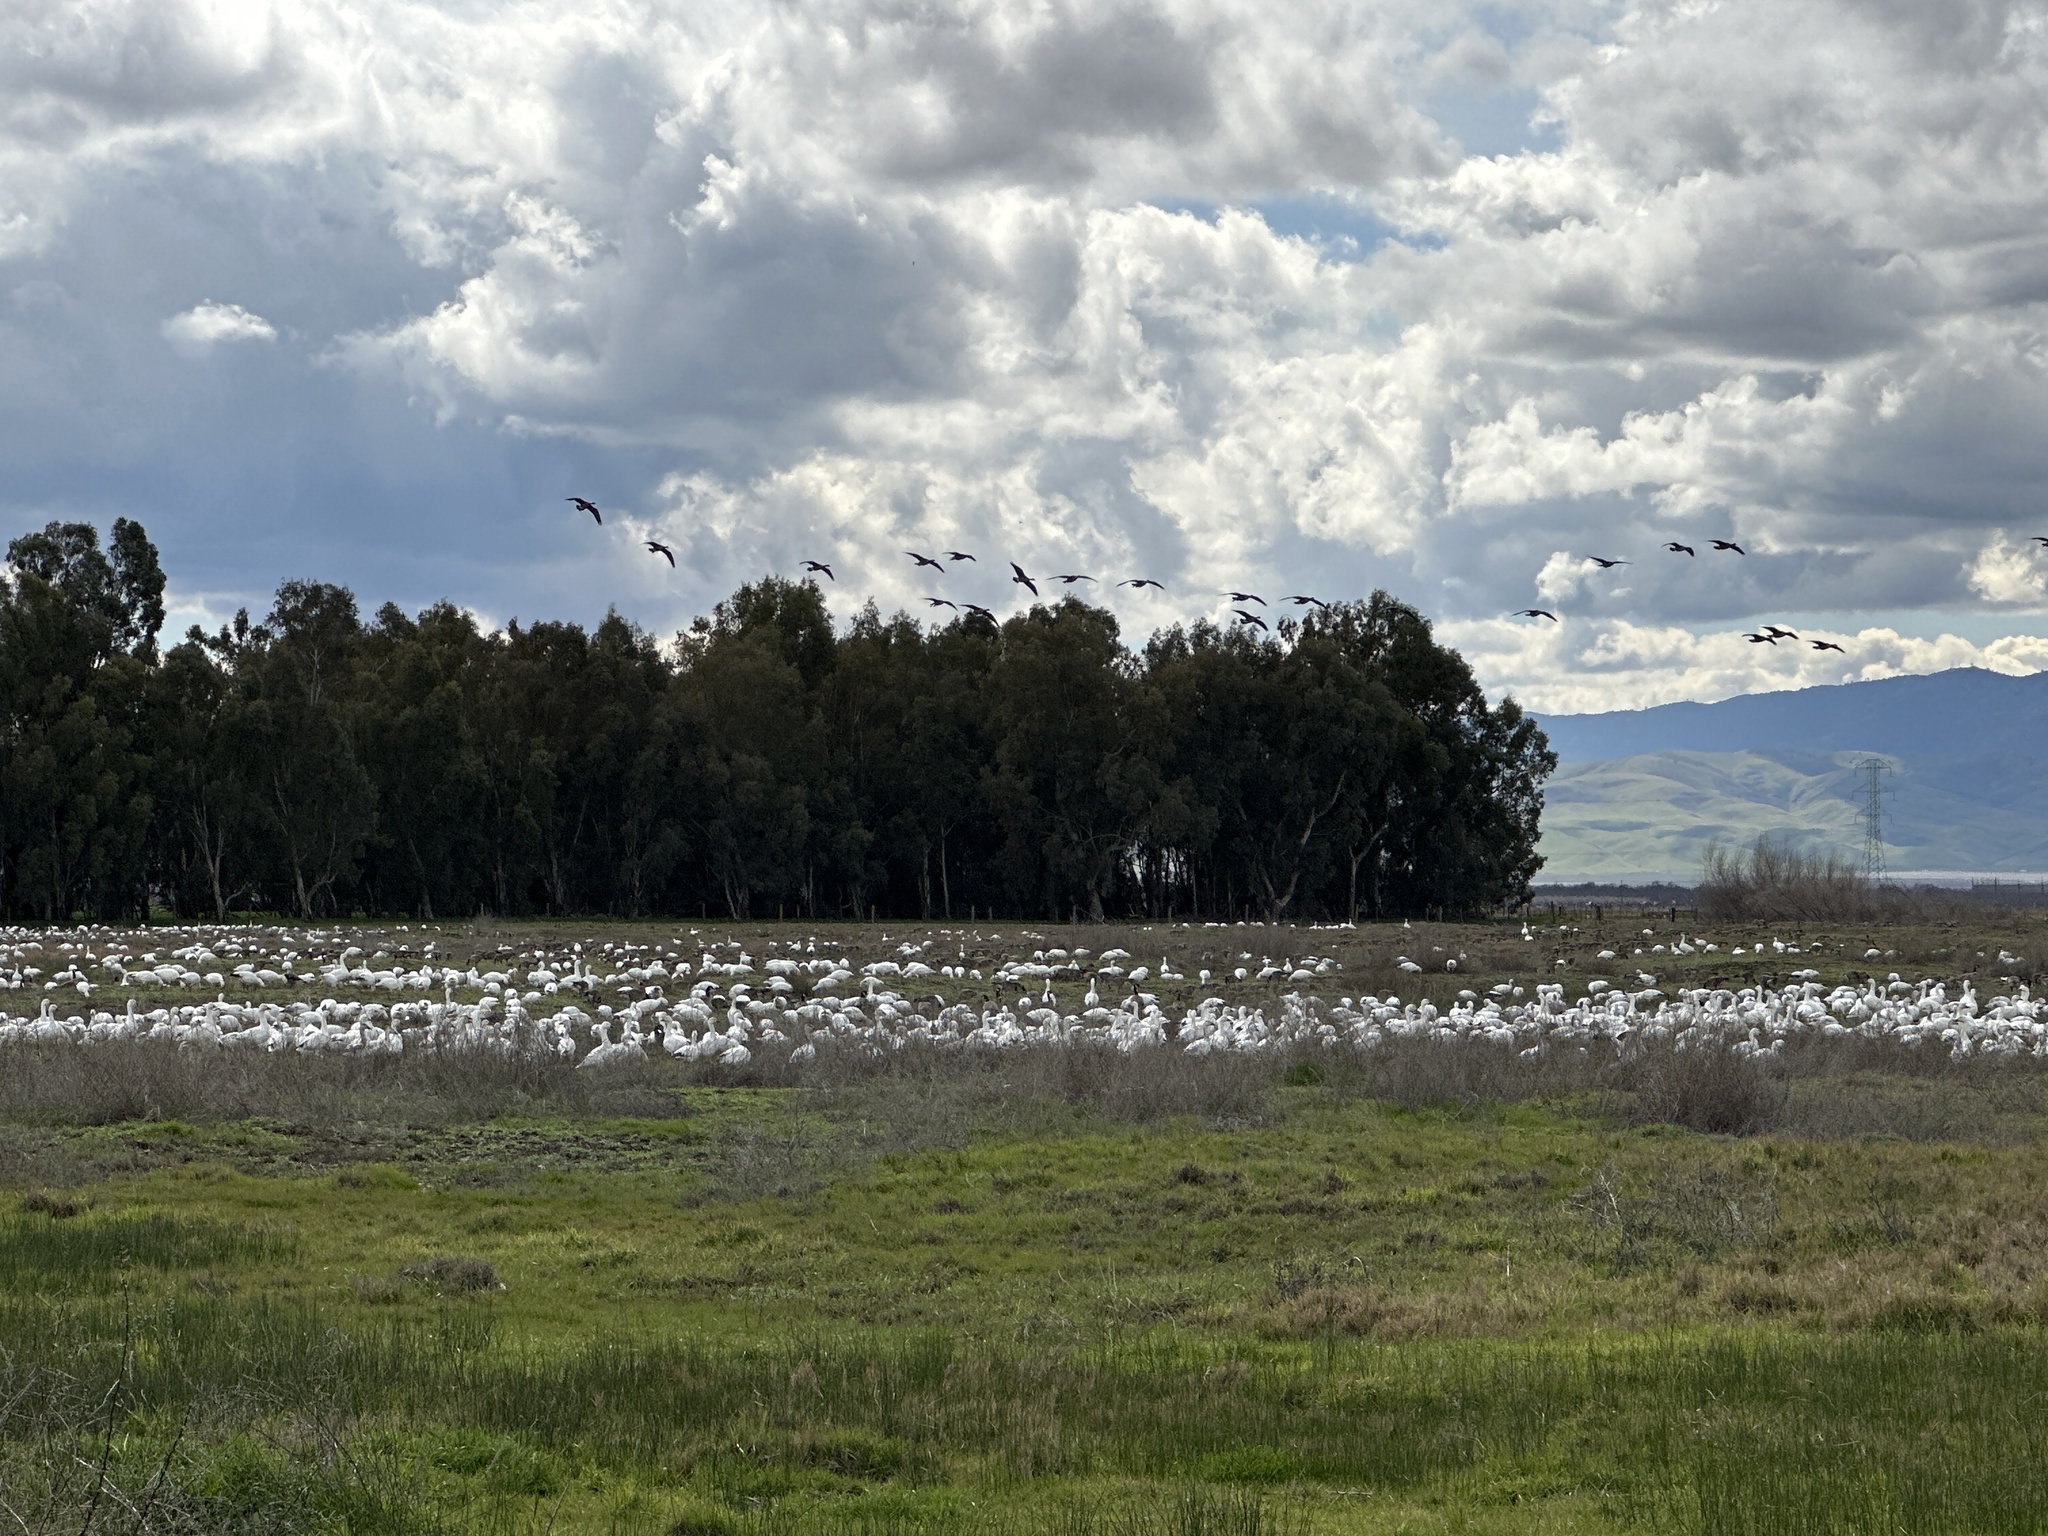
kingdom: Animalia
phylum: Chordata
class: Aves
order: Anseriformes
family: Anatidae
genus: Anser
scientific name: Anser caerulescens
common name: Snow goose
